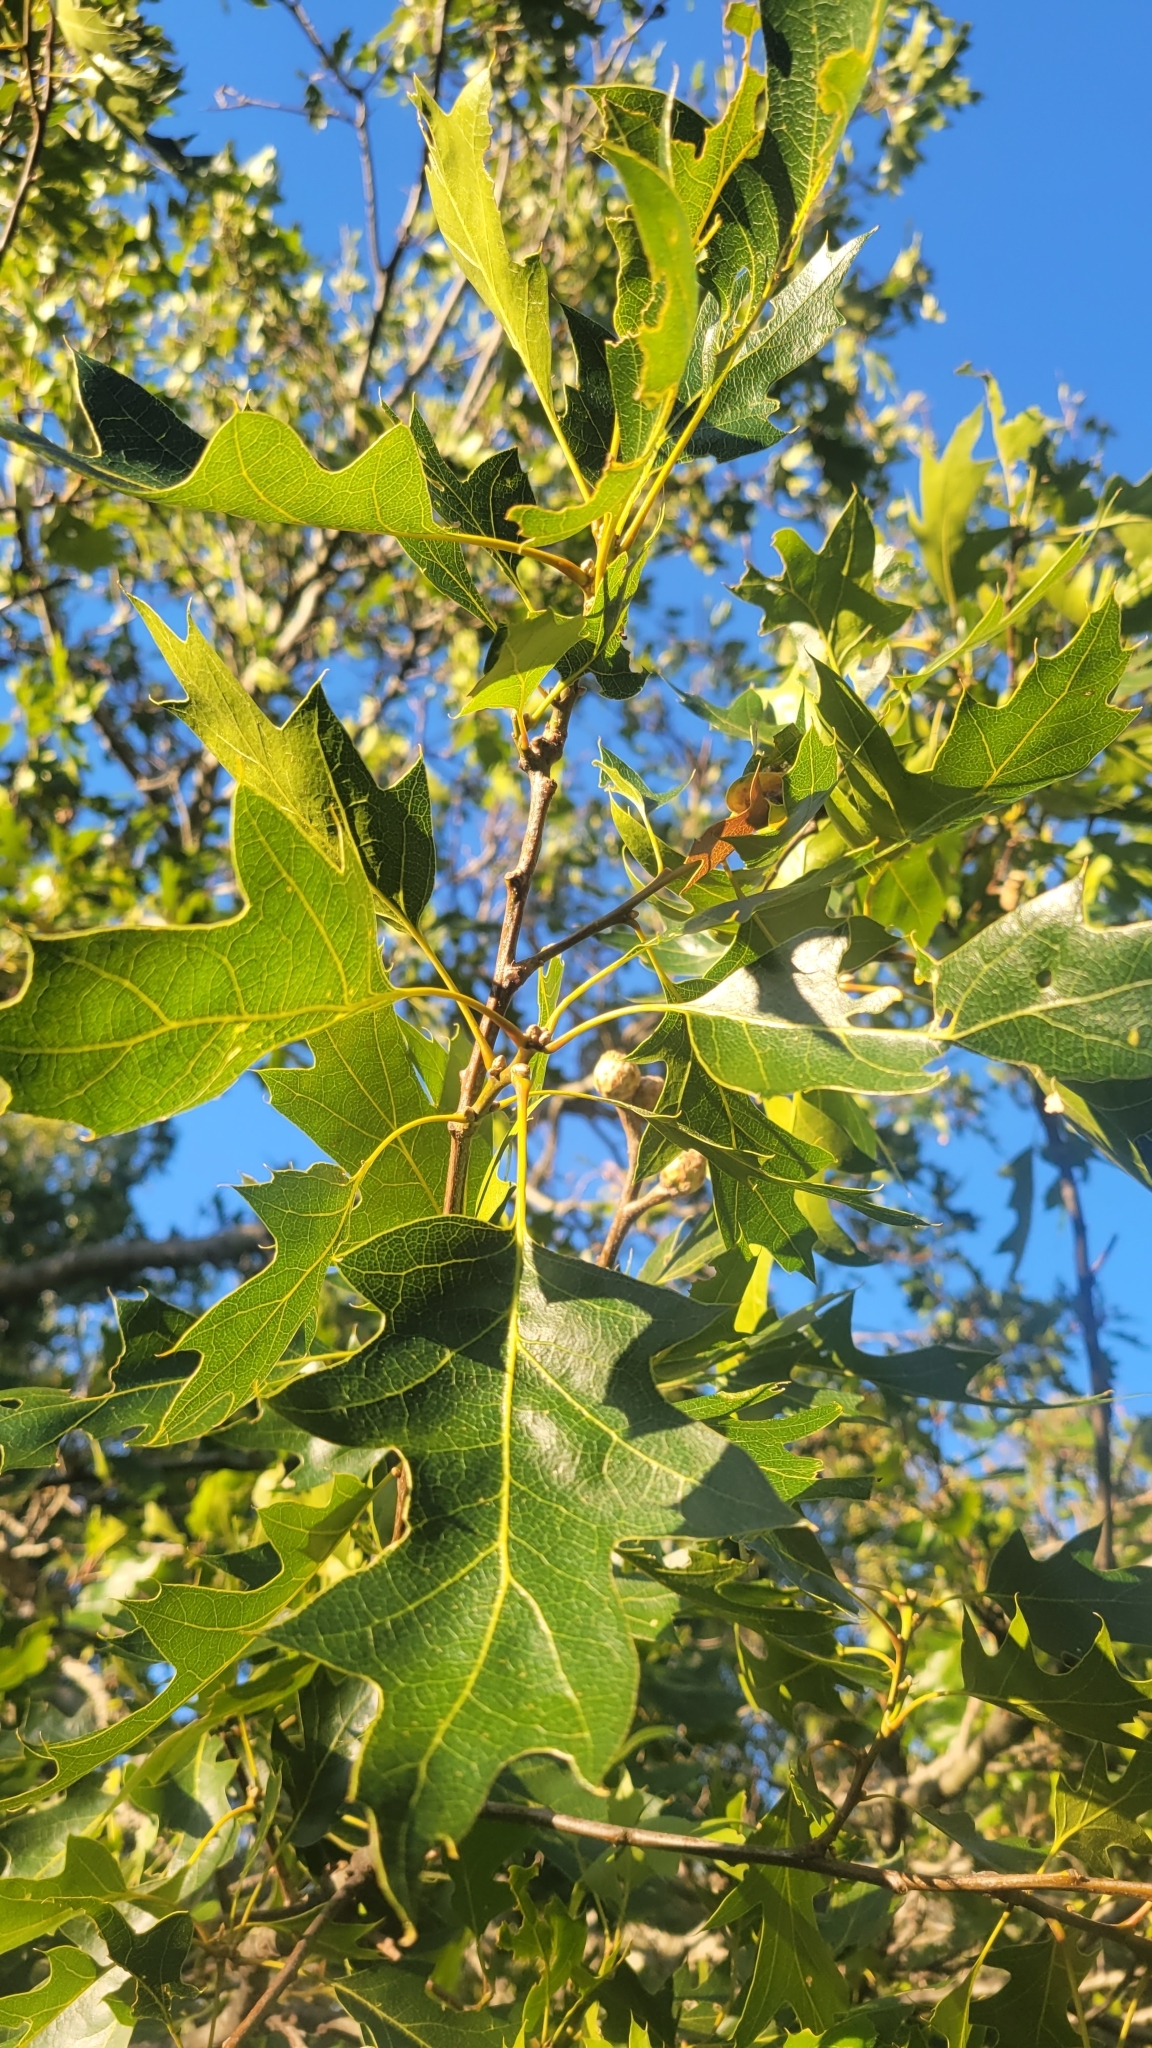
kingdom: Plantae
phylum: Tracheophyta
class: Magnoliopsida
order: Fagales
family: Fagaceae
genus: Quercus
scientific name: Quercus kelloggii
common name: California black oak
